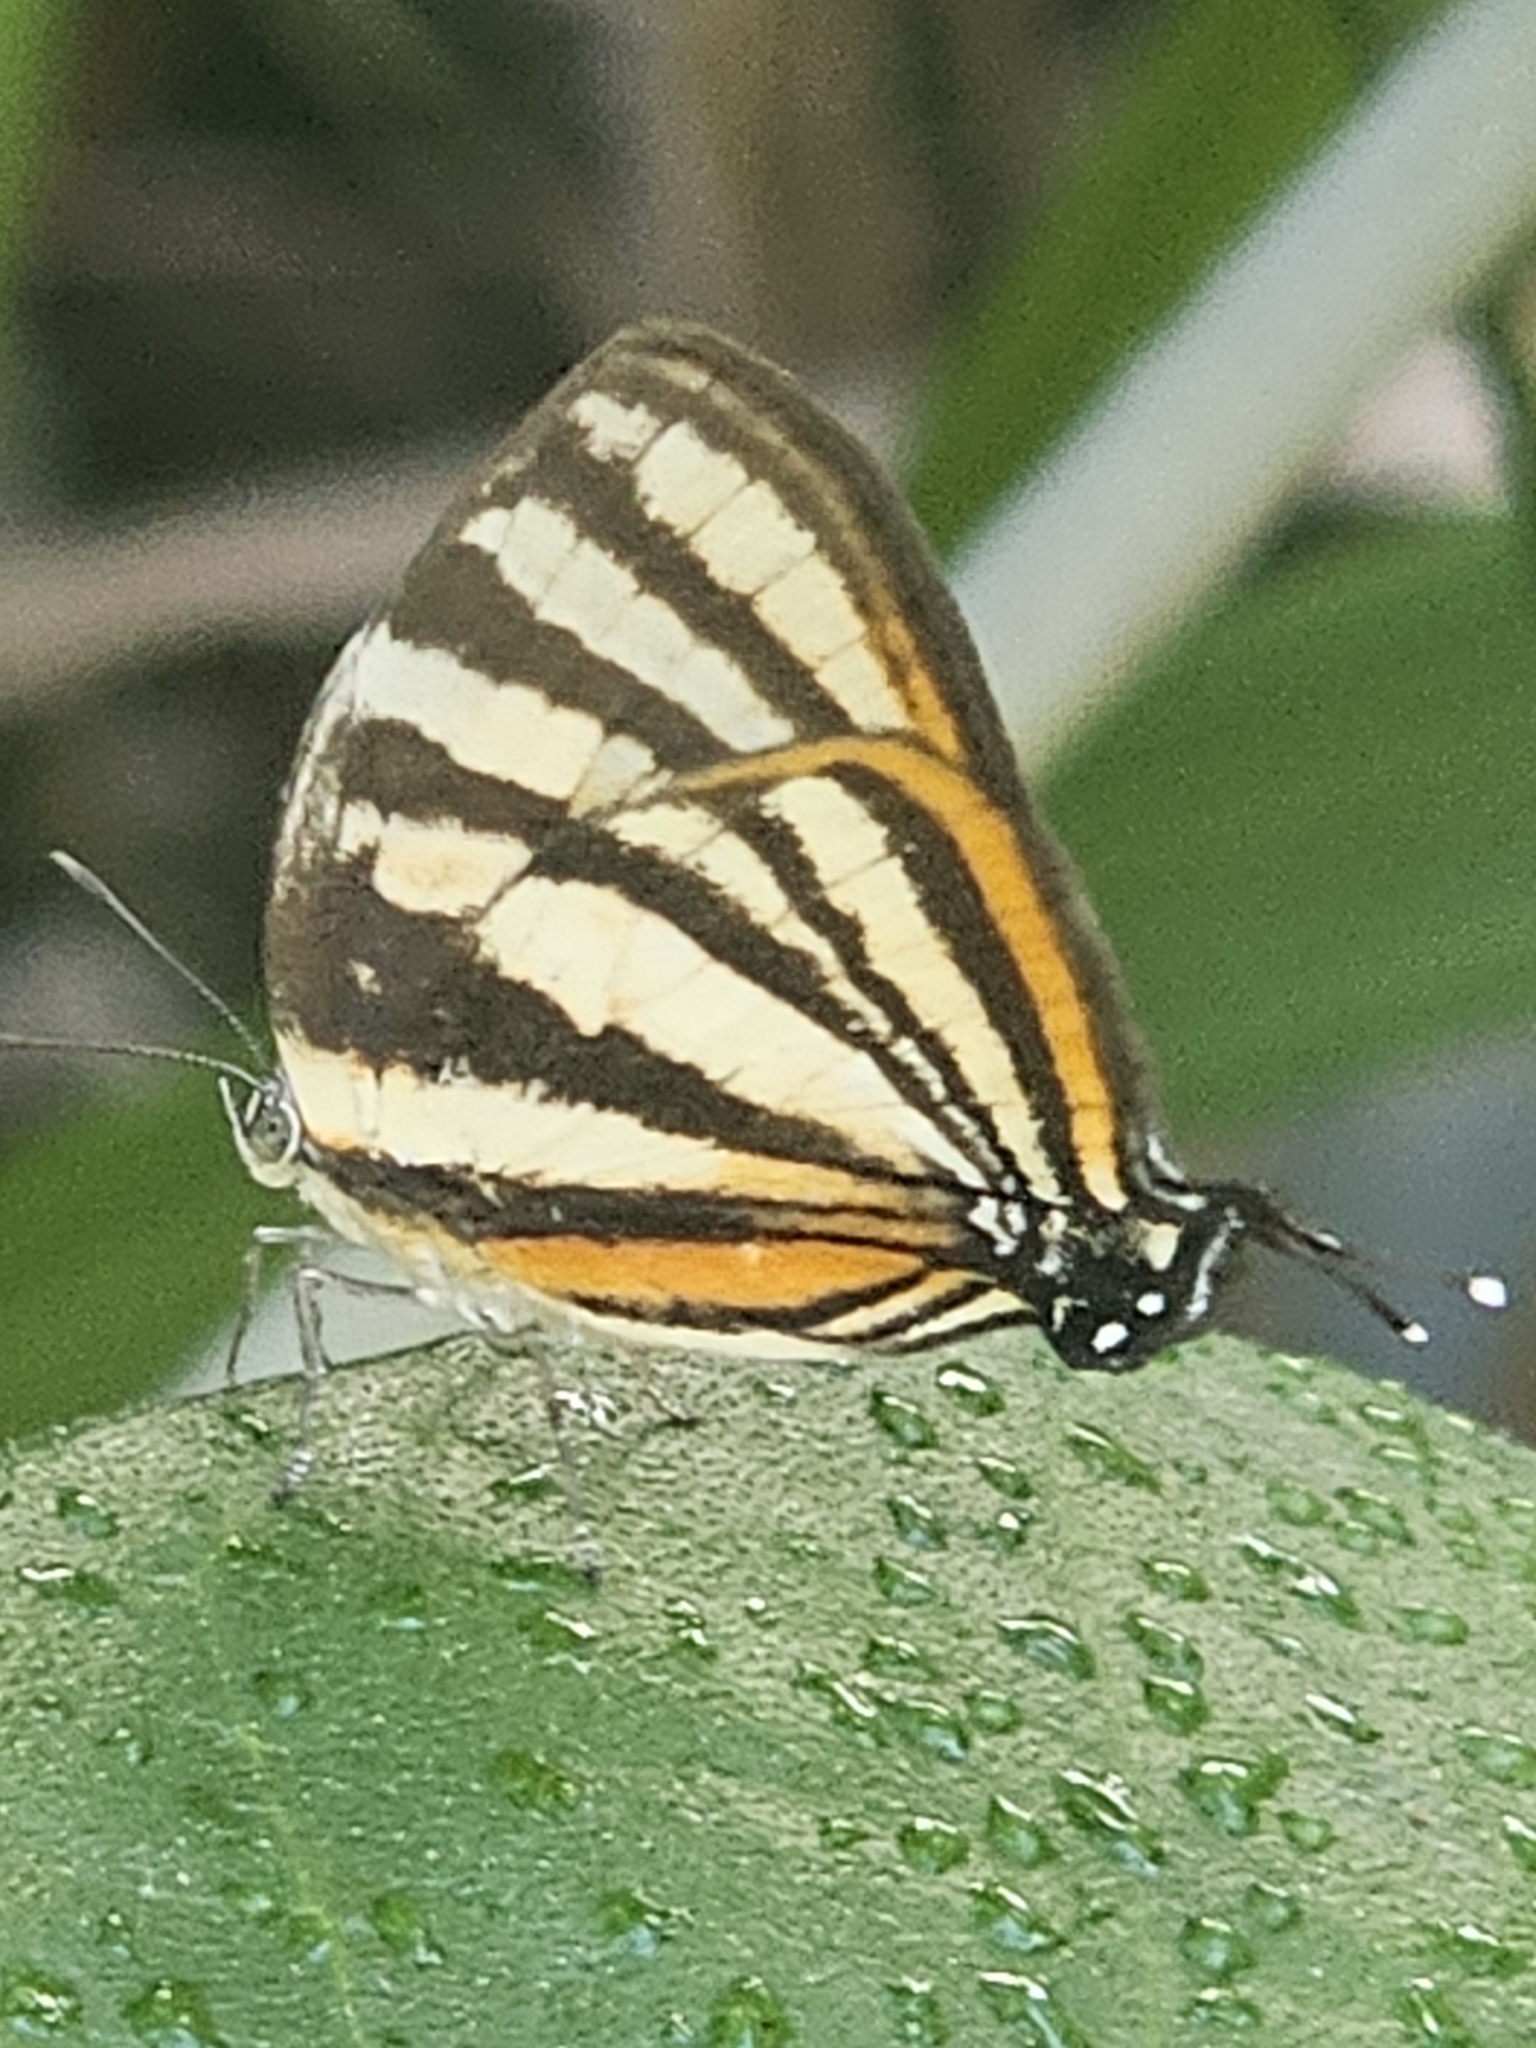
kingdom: Animalia
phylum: Arthropoda
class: Insecta
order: Lepidoptera
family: Lycaenidae
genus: Thecla
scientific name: Thecla aetolus
